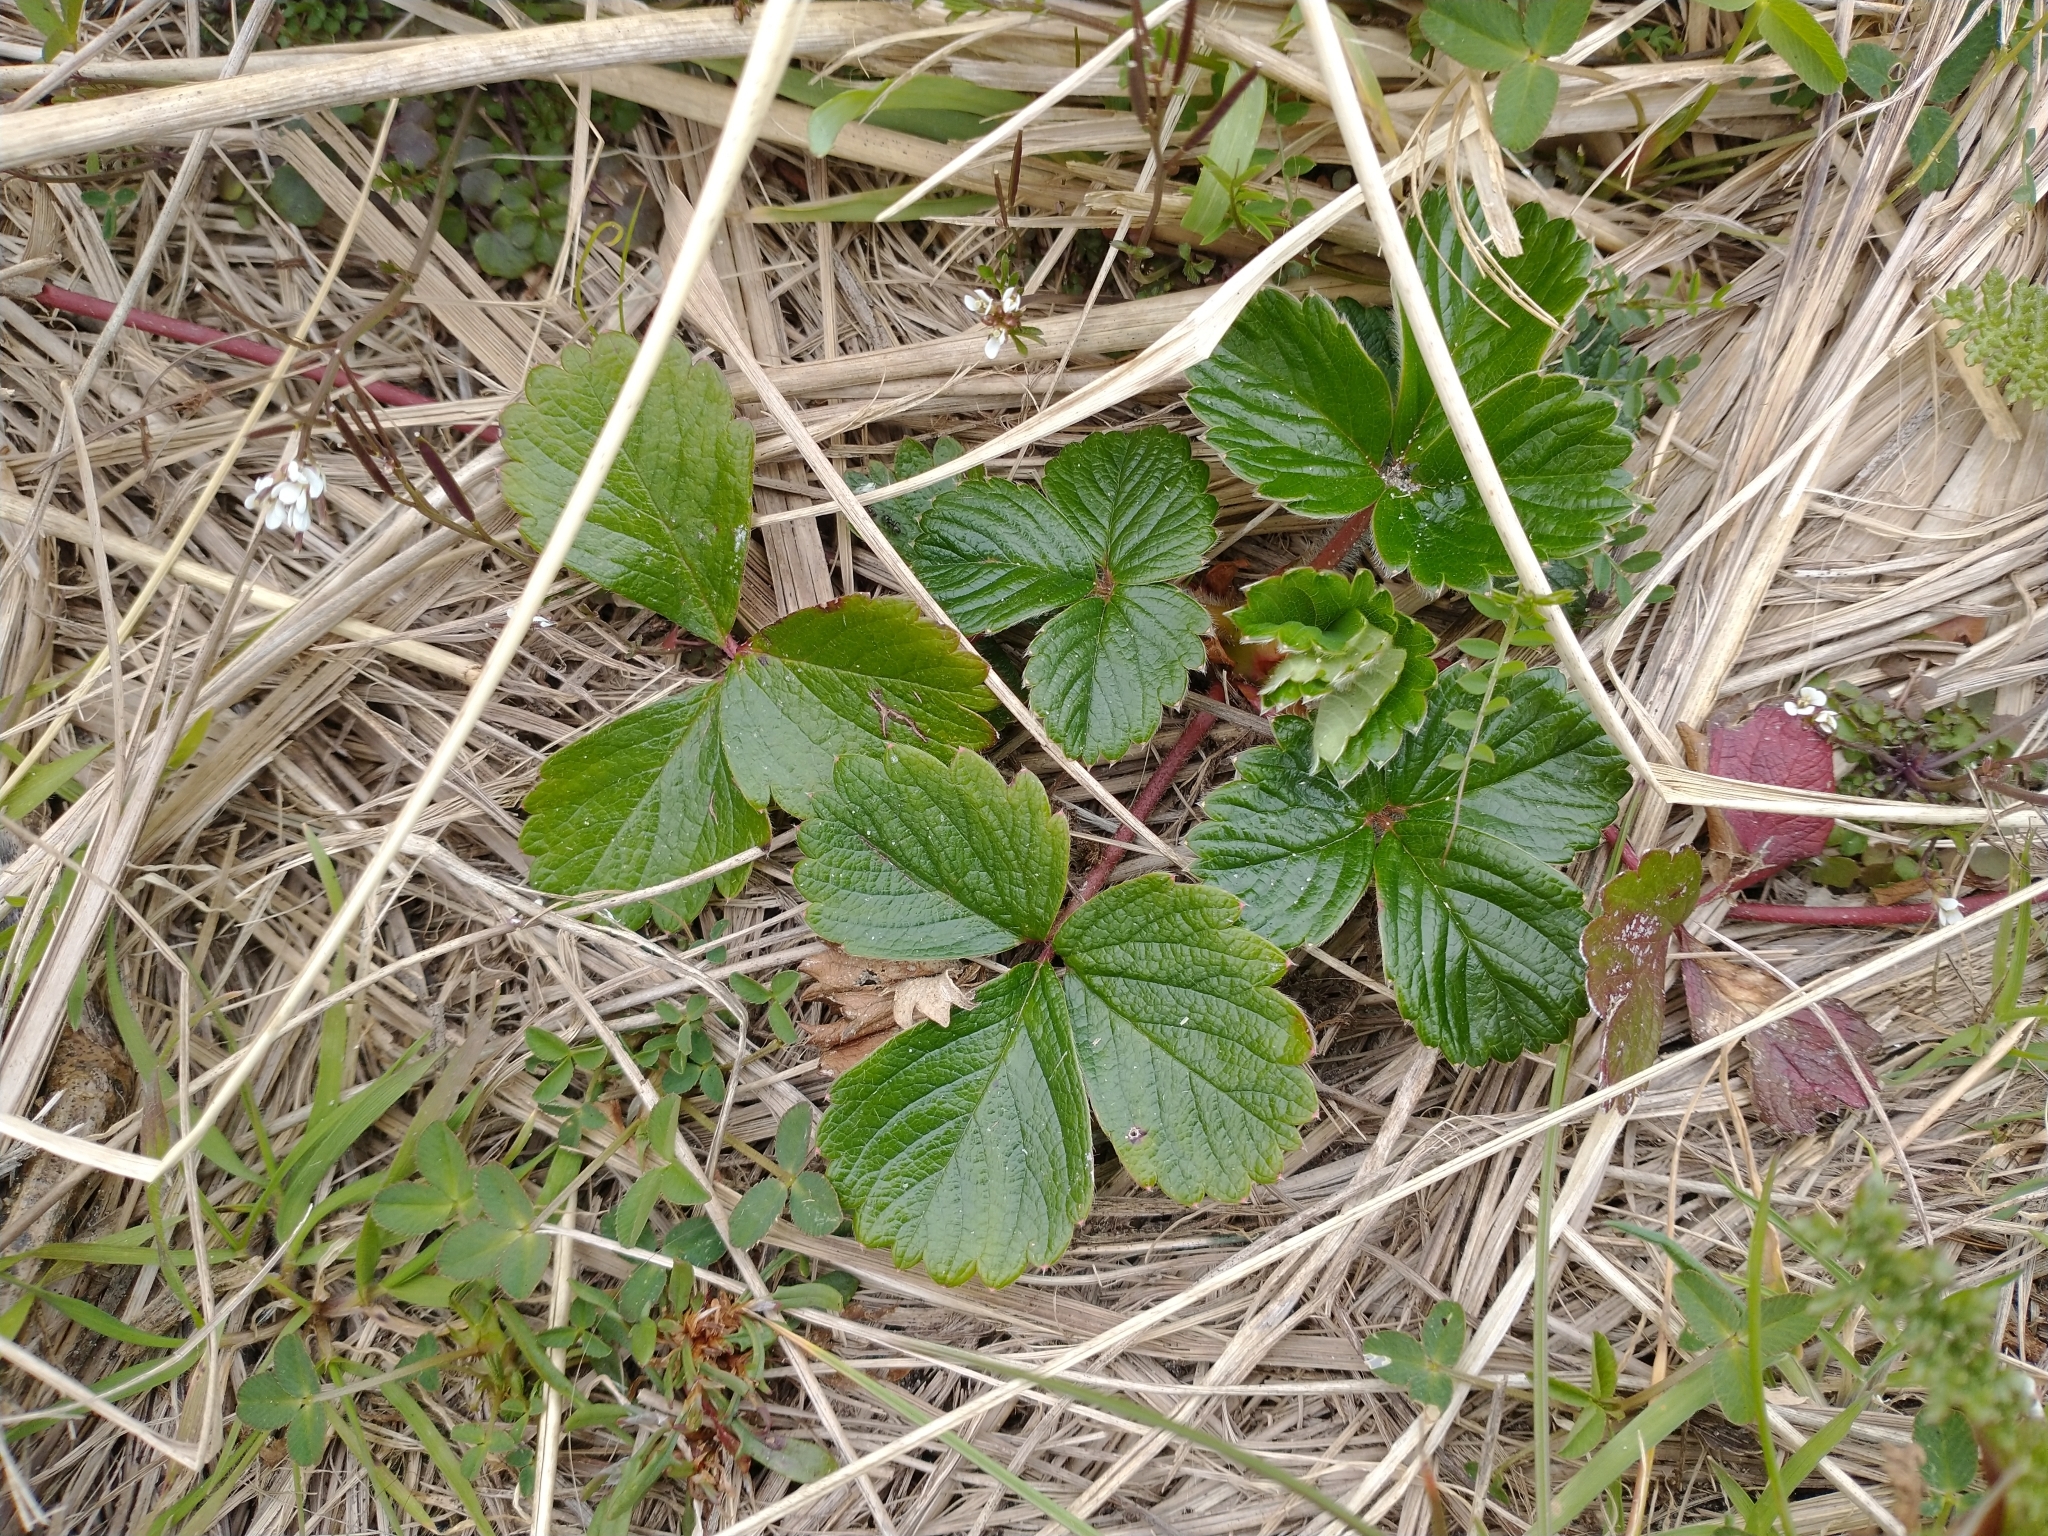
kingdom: Plantae
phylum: Tracheophyta
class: Magnoliopsida
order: Rosales
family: Rosaceae
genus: Fragaria
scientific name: Fragaria chiloensis
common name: Beach strawberry
